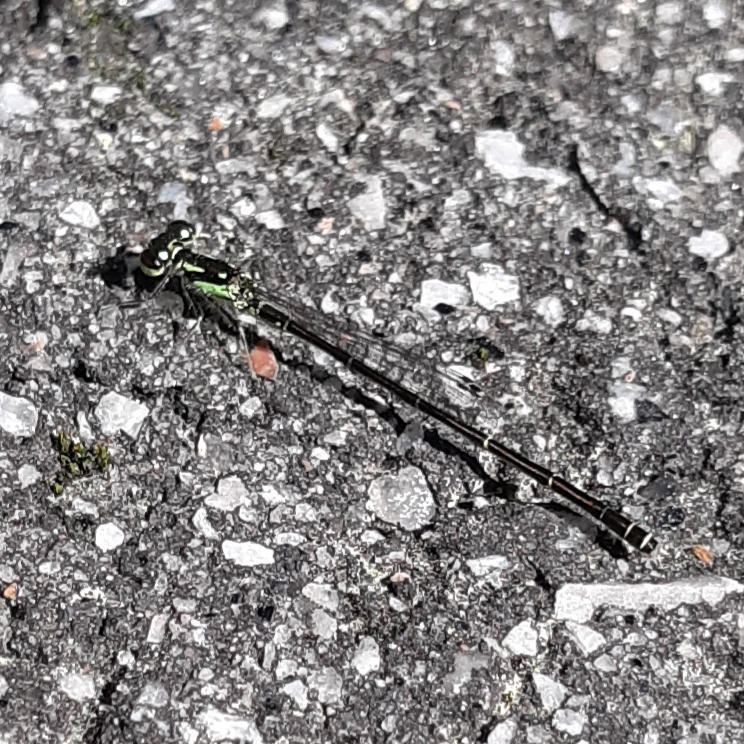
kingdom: Animalia
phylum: Arthropoda
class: Insecta
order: Odonata
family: Coenagrionidae
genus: Ischnura
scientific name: Ischnura posita
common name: Fragile forktail
